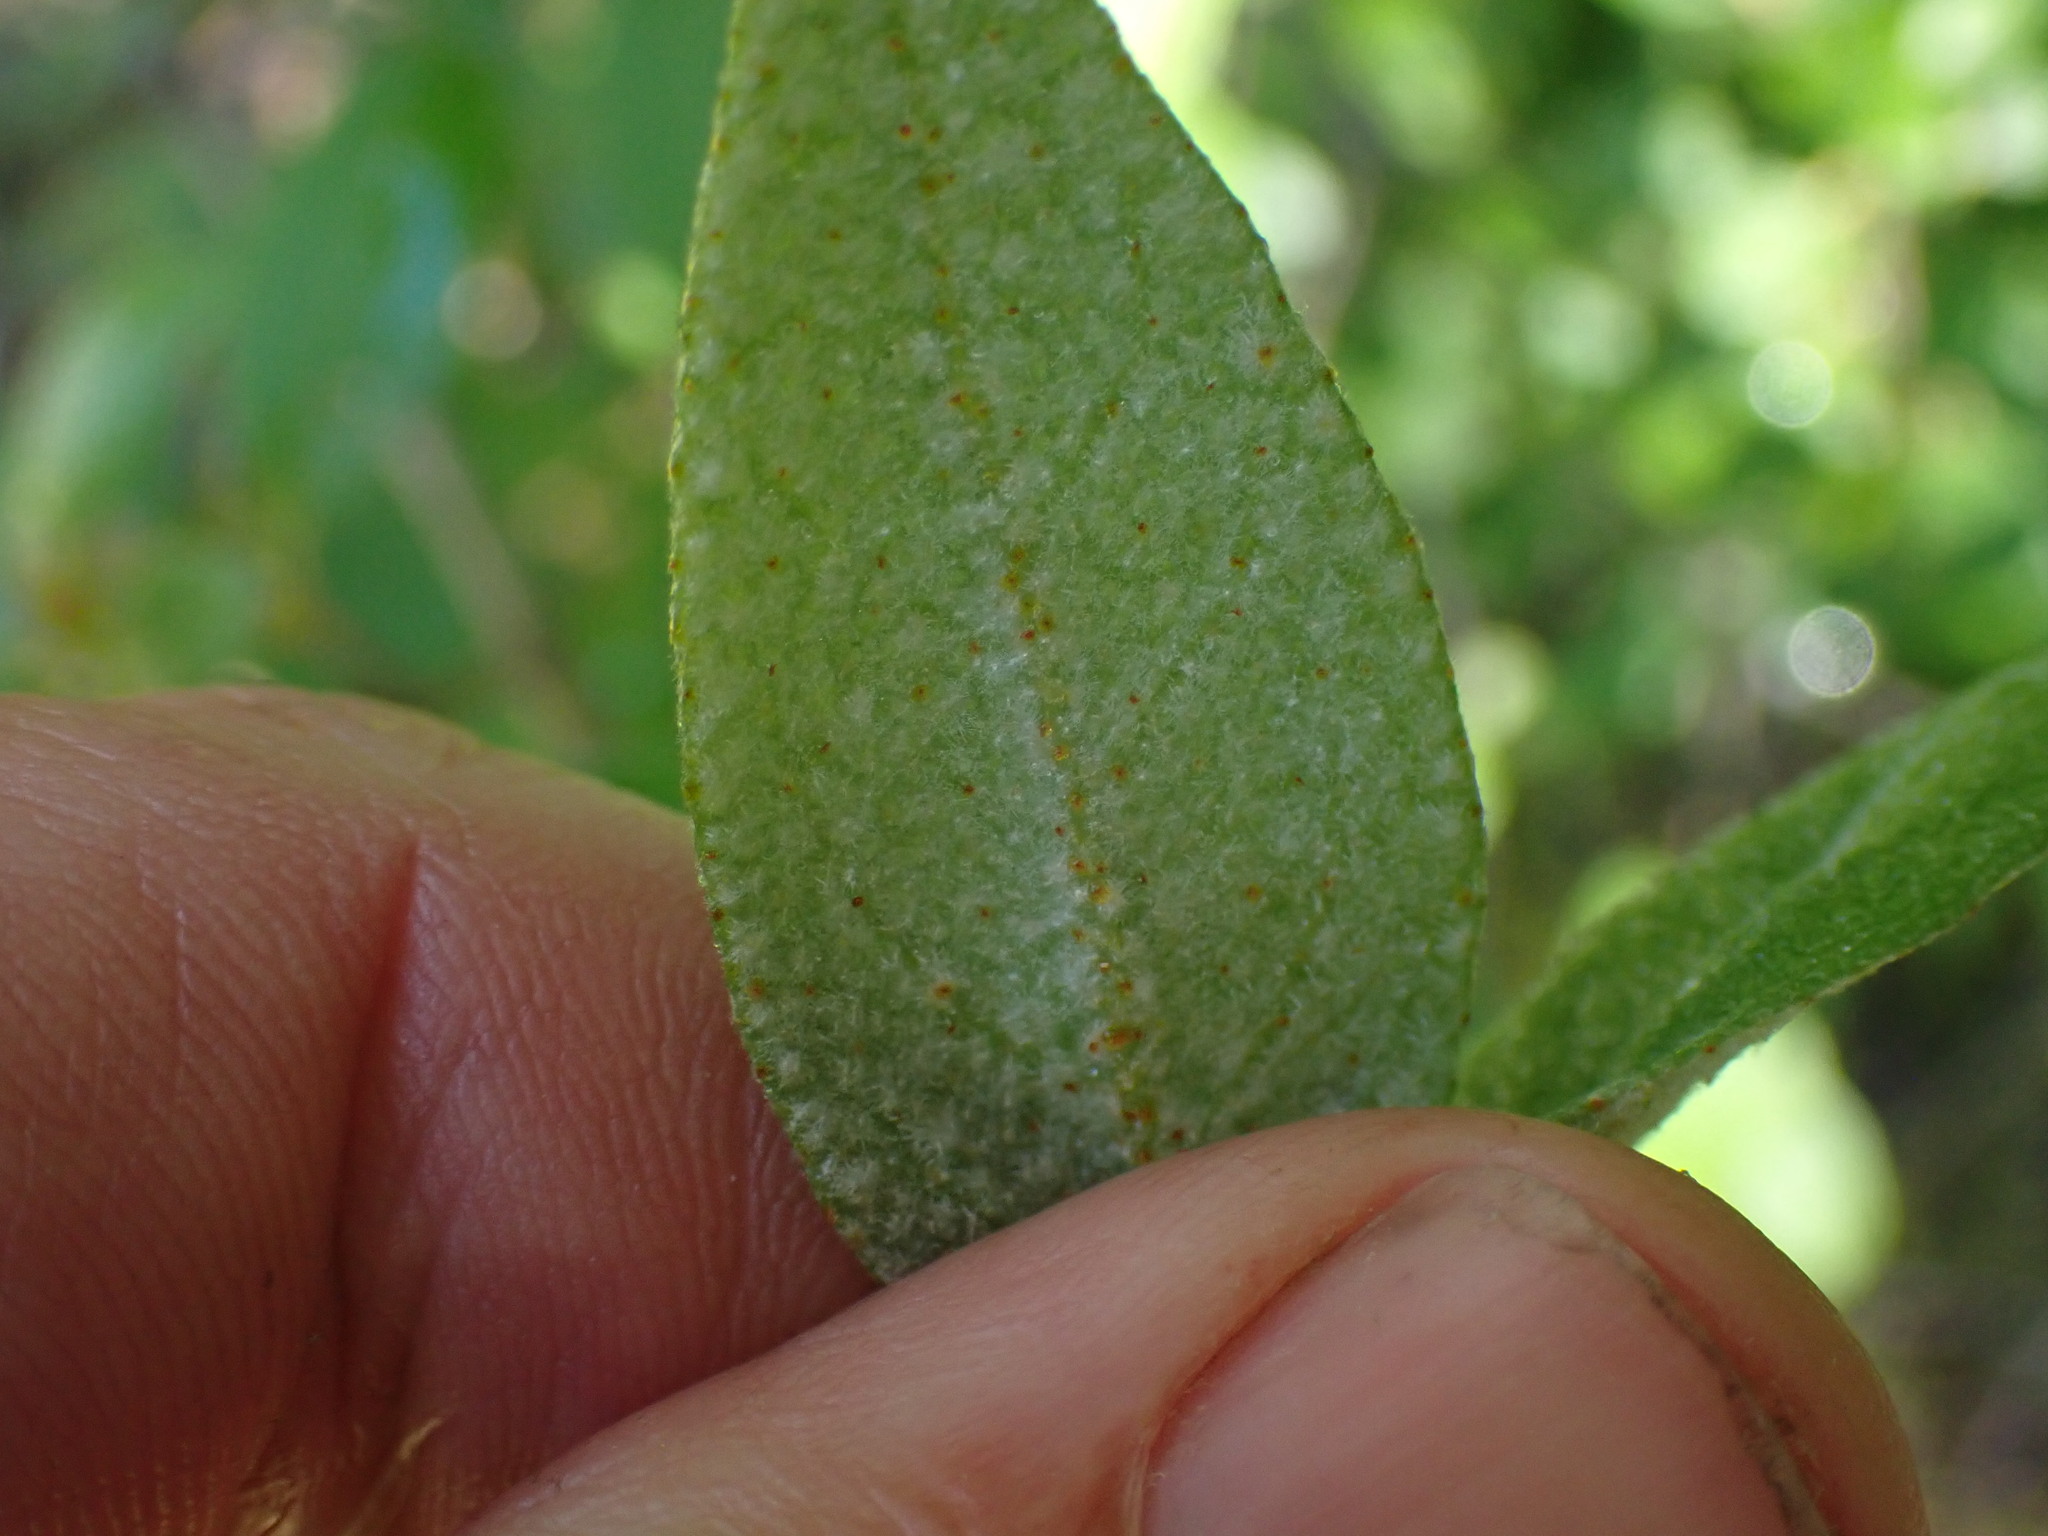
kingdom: Plantae
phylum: Tracheophyta
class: Magnoliopsida
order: Rosales
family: Elaeagnaceae
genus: Shepherdia
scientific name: Shepherdia canadensis
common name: Soapberry
